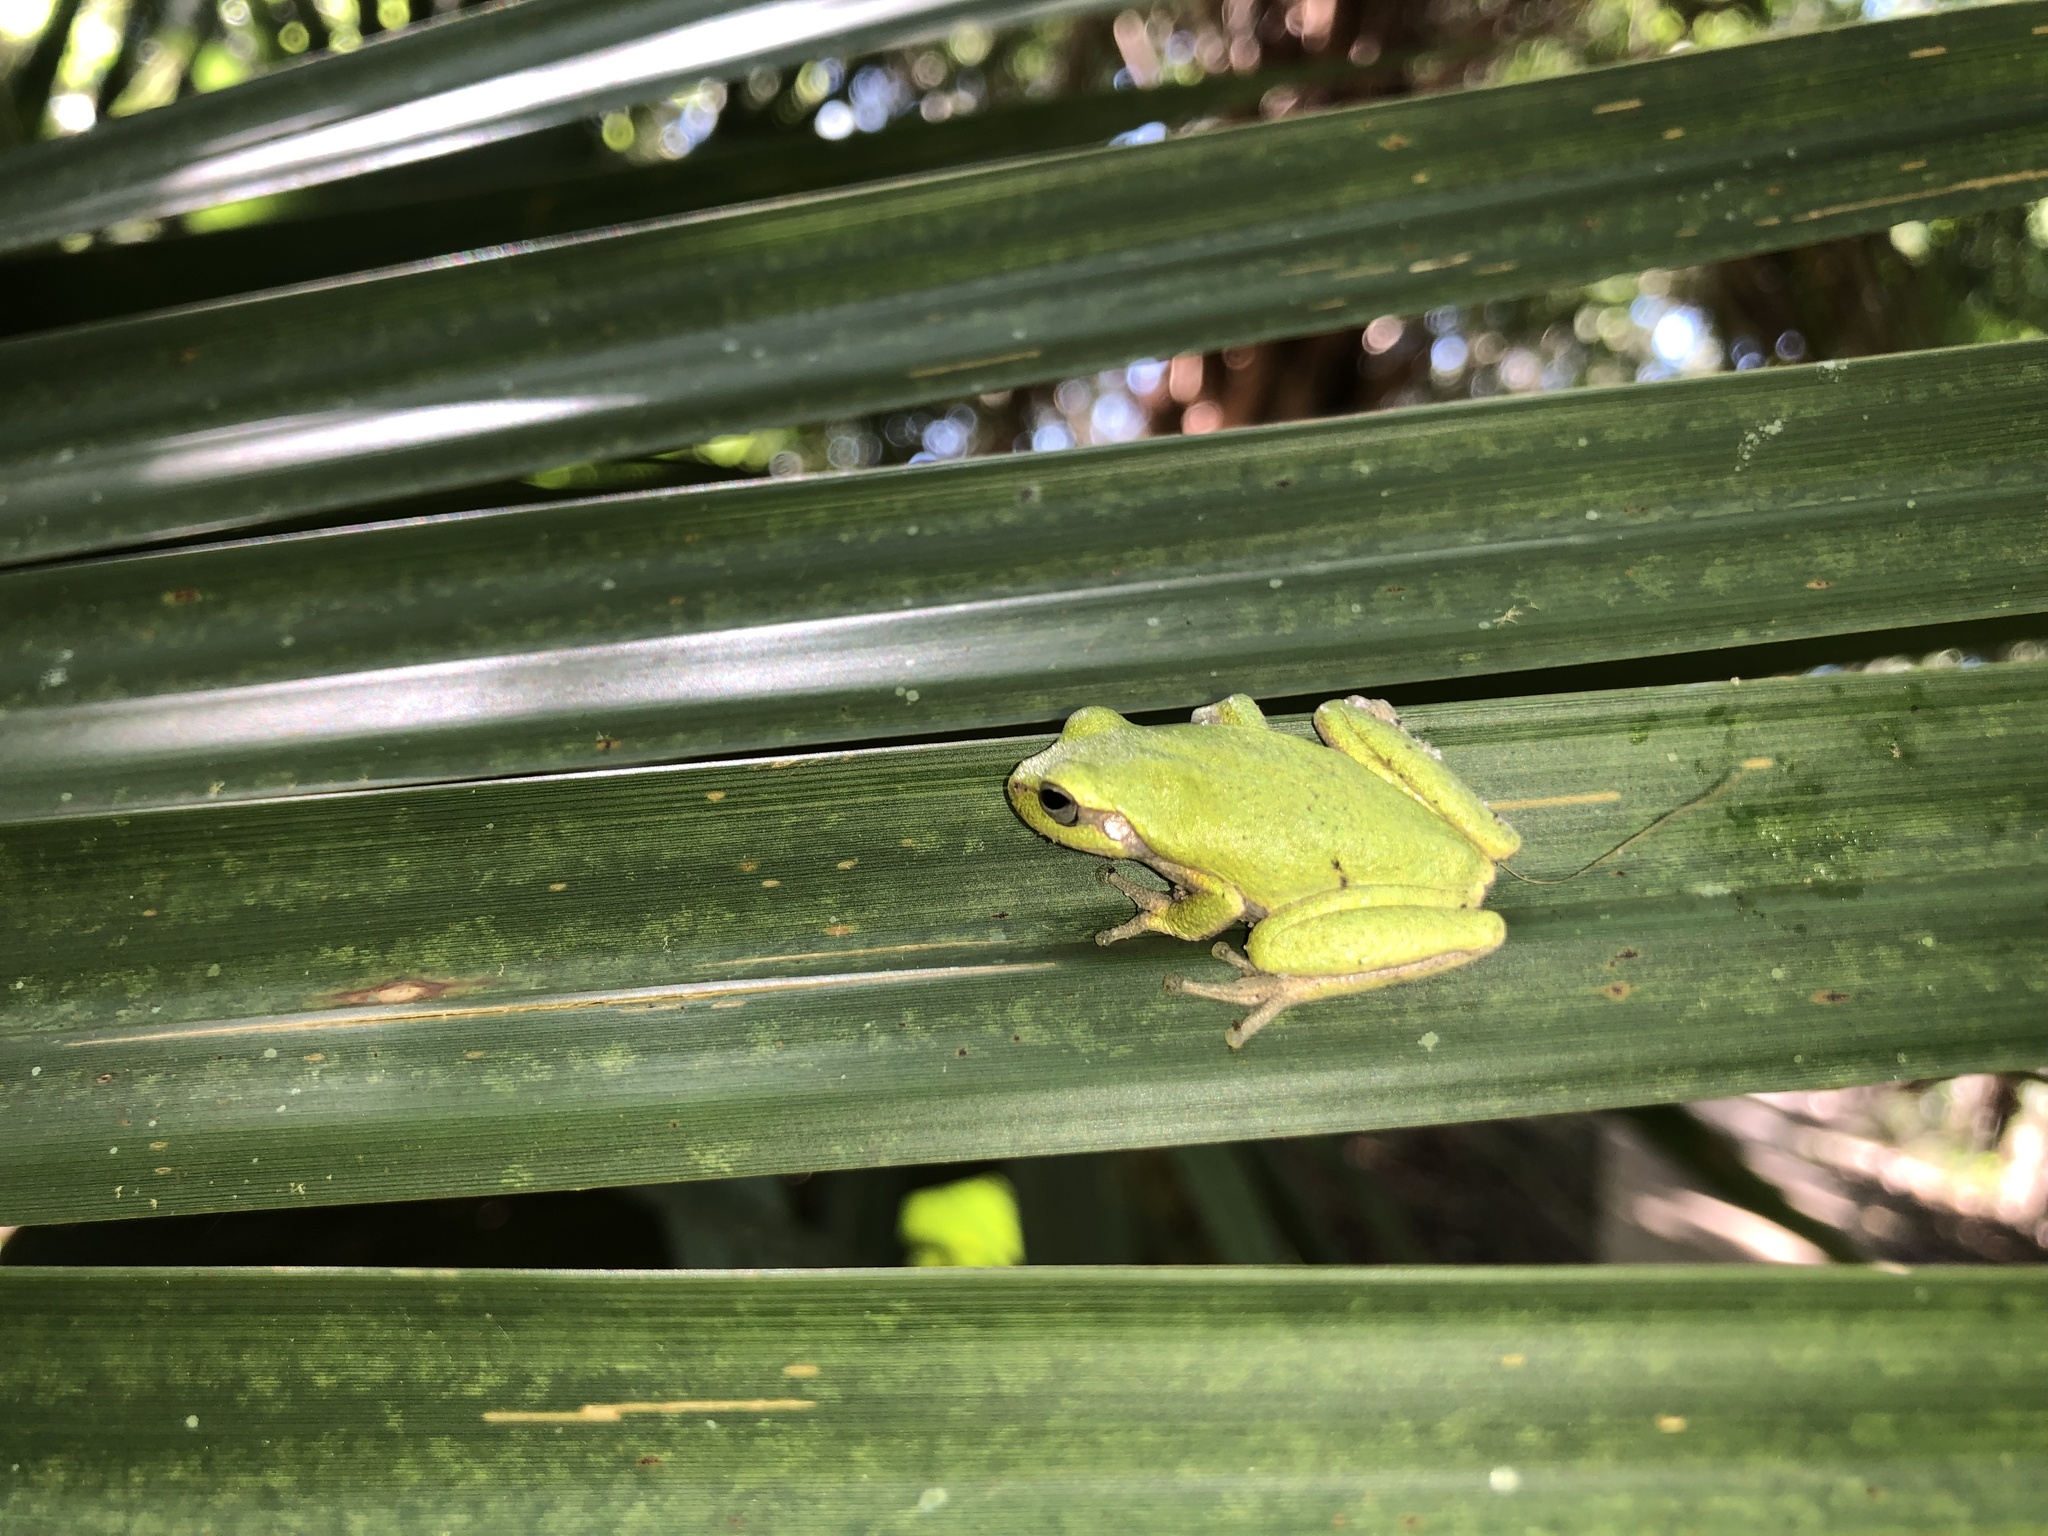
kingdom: Animalia
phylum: Chordata
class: Amphibia
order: Anura
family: Hylidae
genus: Hyla
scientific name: Hyla femoralis
